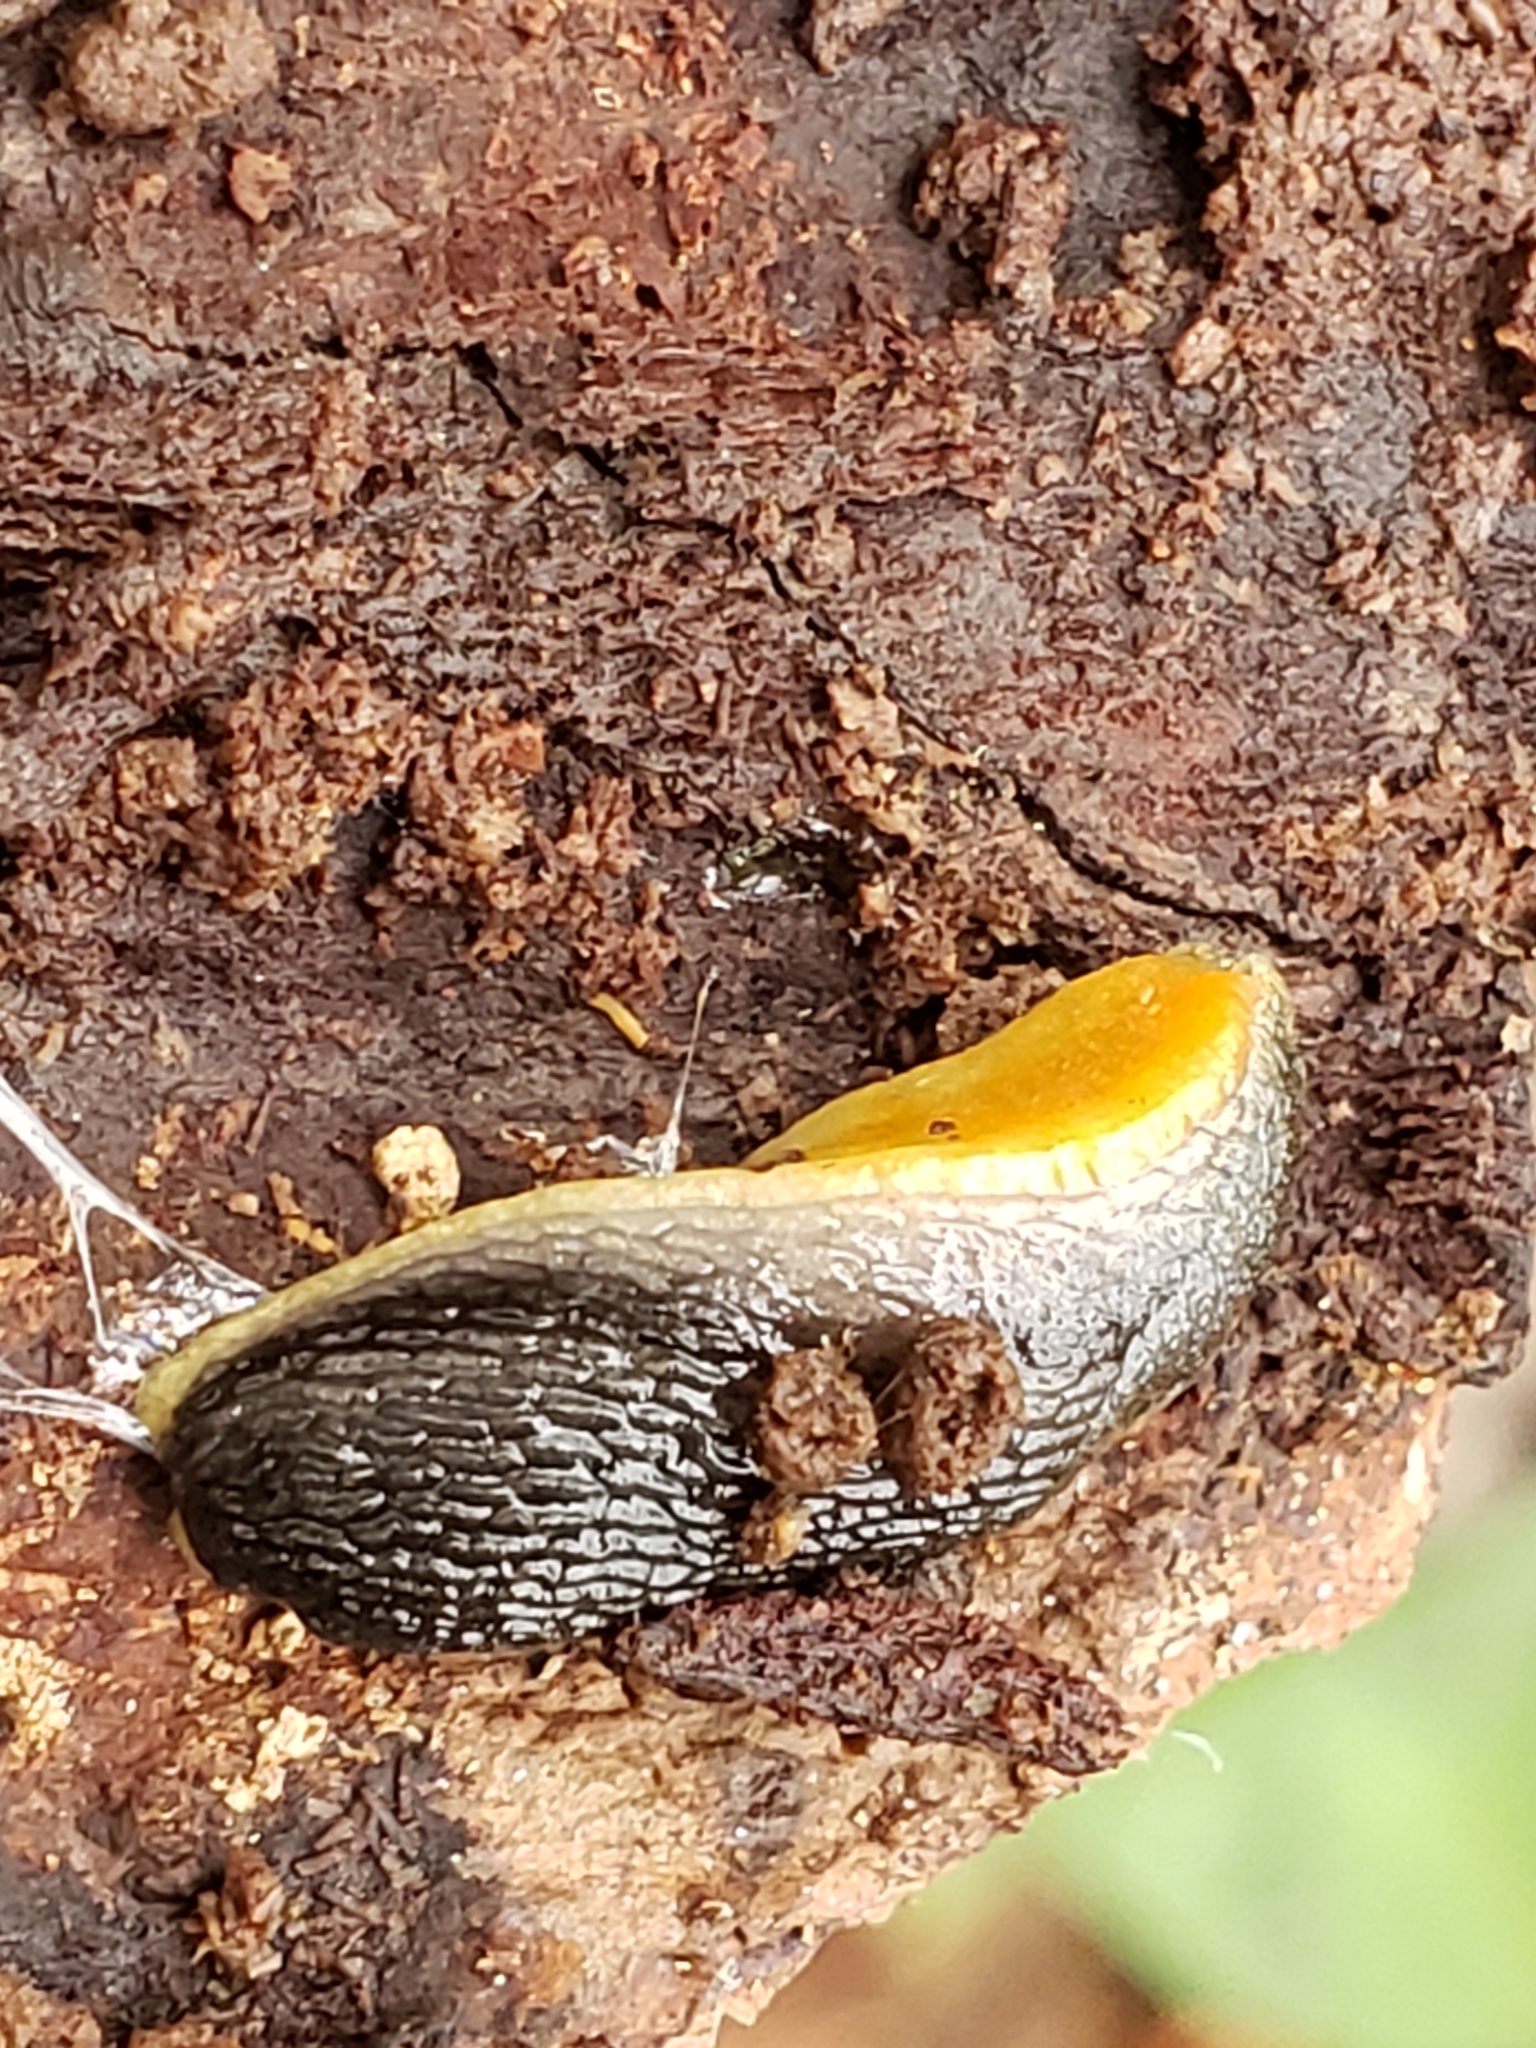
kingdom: Animalia
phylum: Mollusca
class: Gastropoda
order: Stylommatophora
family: Arionidae
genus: Arion
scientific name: Arion hortensis
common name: Garden arion
